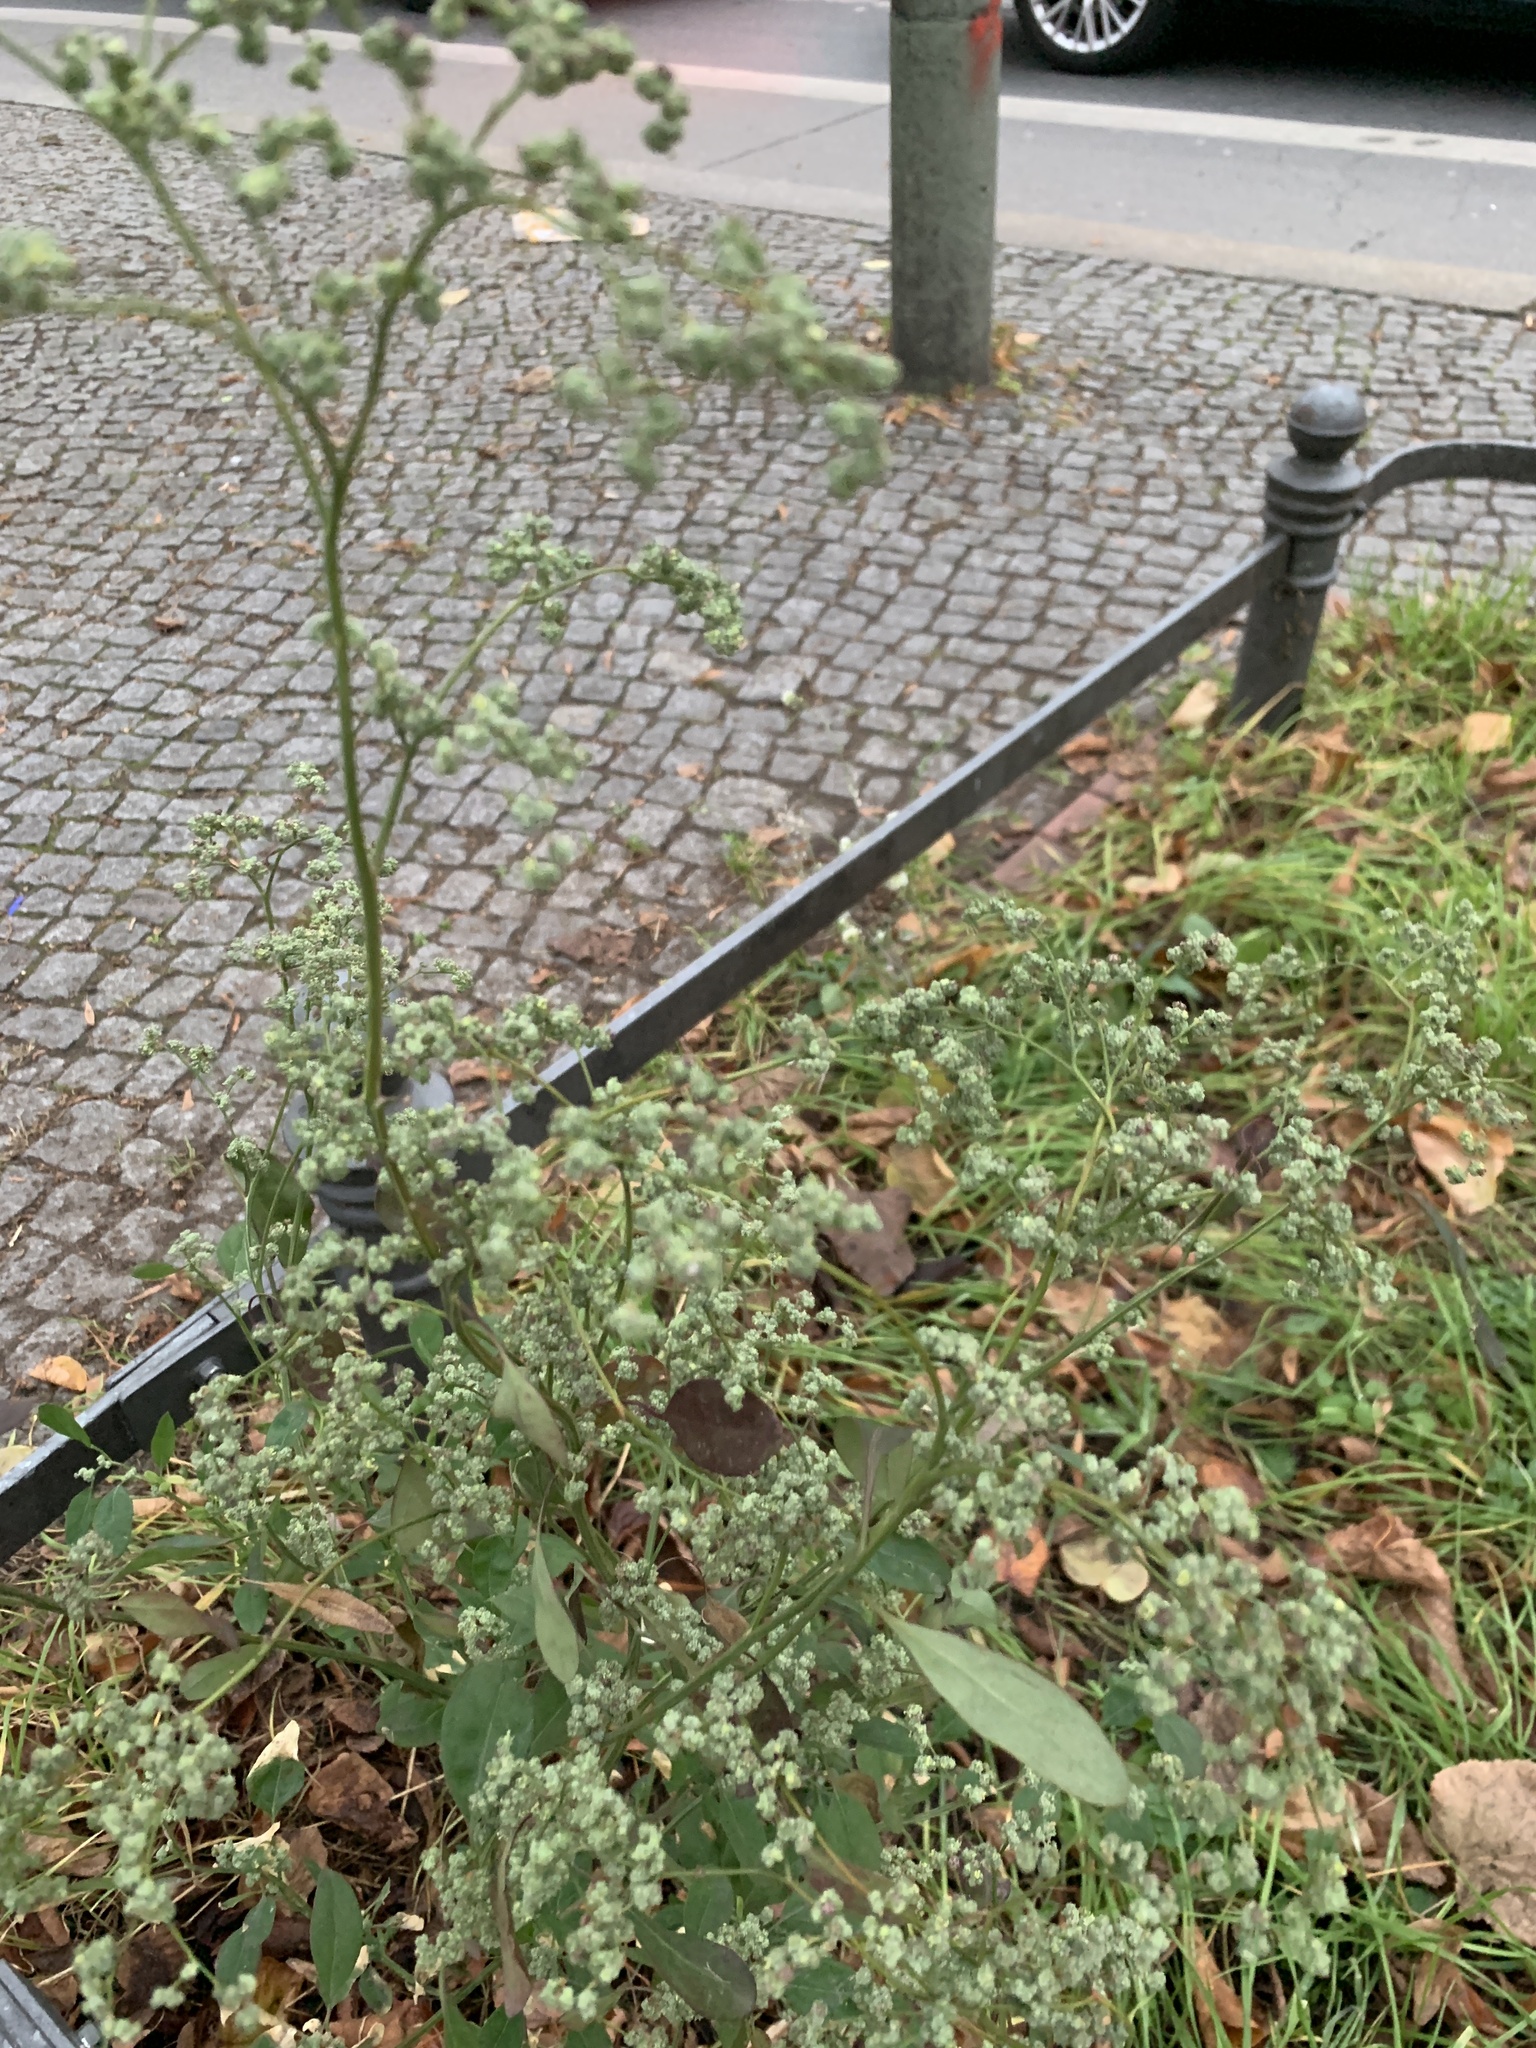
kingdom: Plantae
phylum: Tracheophyta
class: Magnoliopsida
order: Caryophyllales
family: Amaranthaceae
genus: Chenopodium
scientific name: Chenopodium album
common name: Fat-hen
